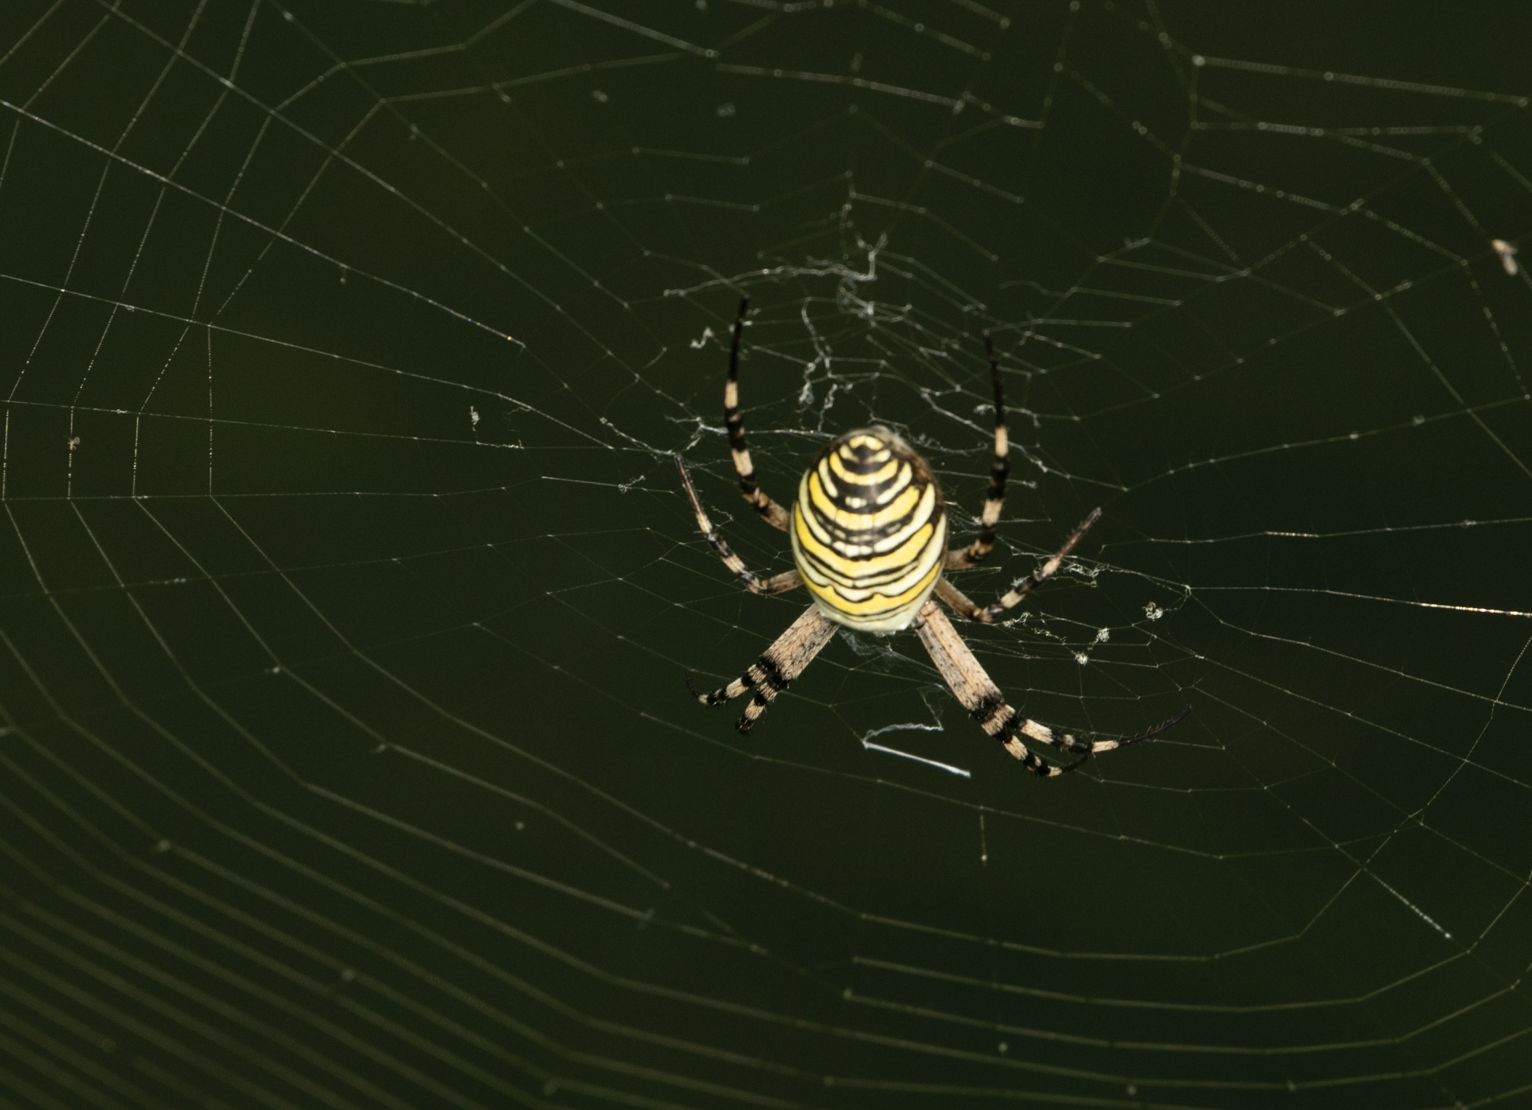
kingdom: Animalia
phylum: Arthropoda
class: Arachnida
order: Araneae
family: Araneidae
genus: Argiope
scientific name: Argiope bruennichi
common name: Wasp spider
